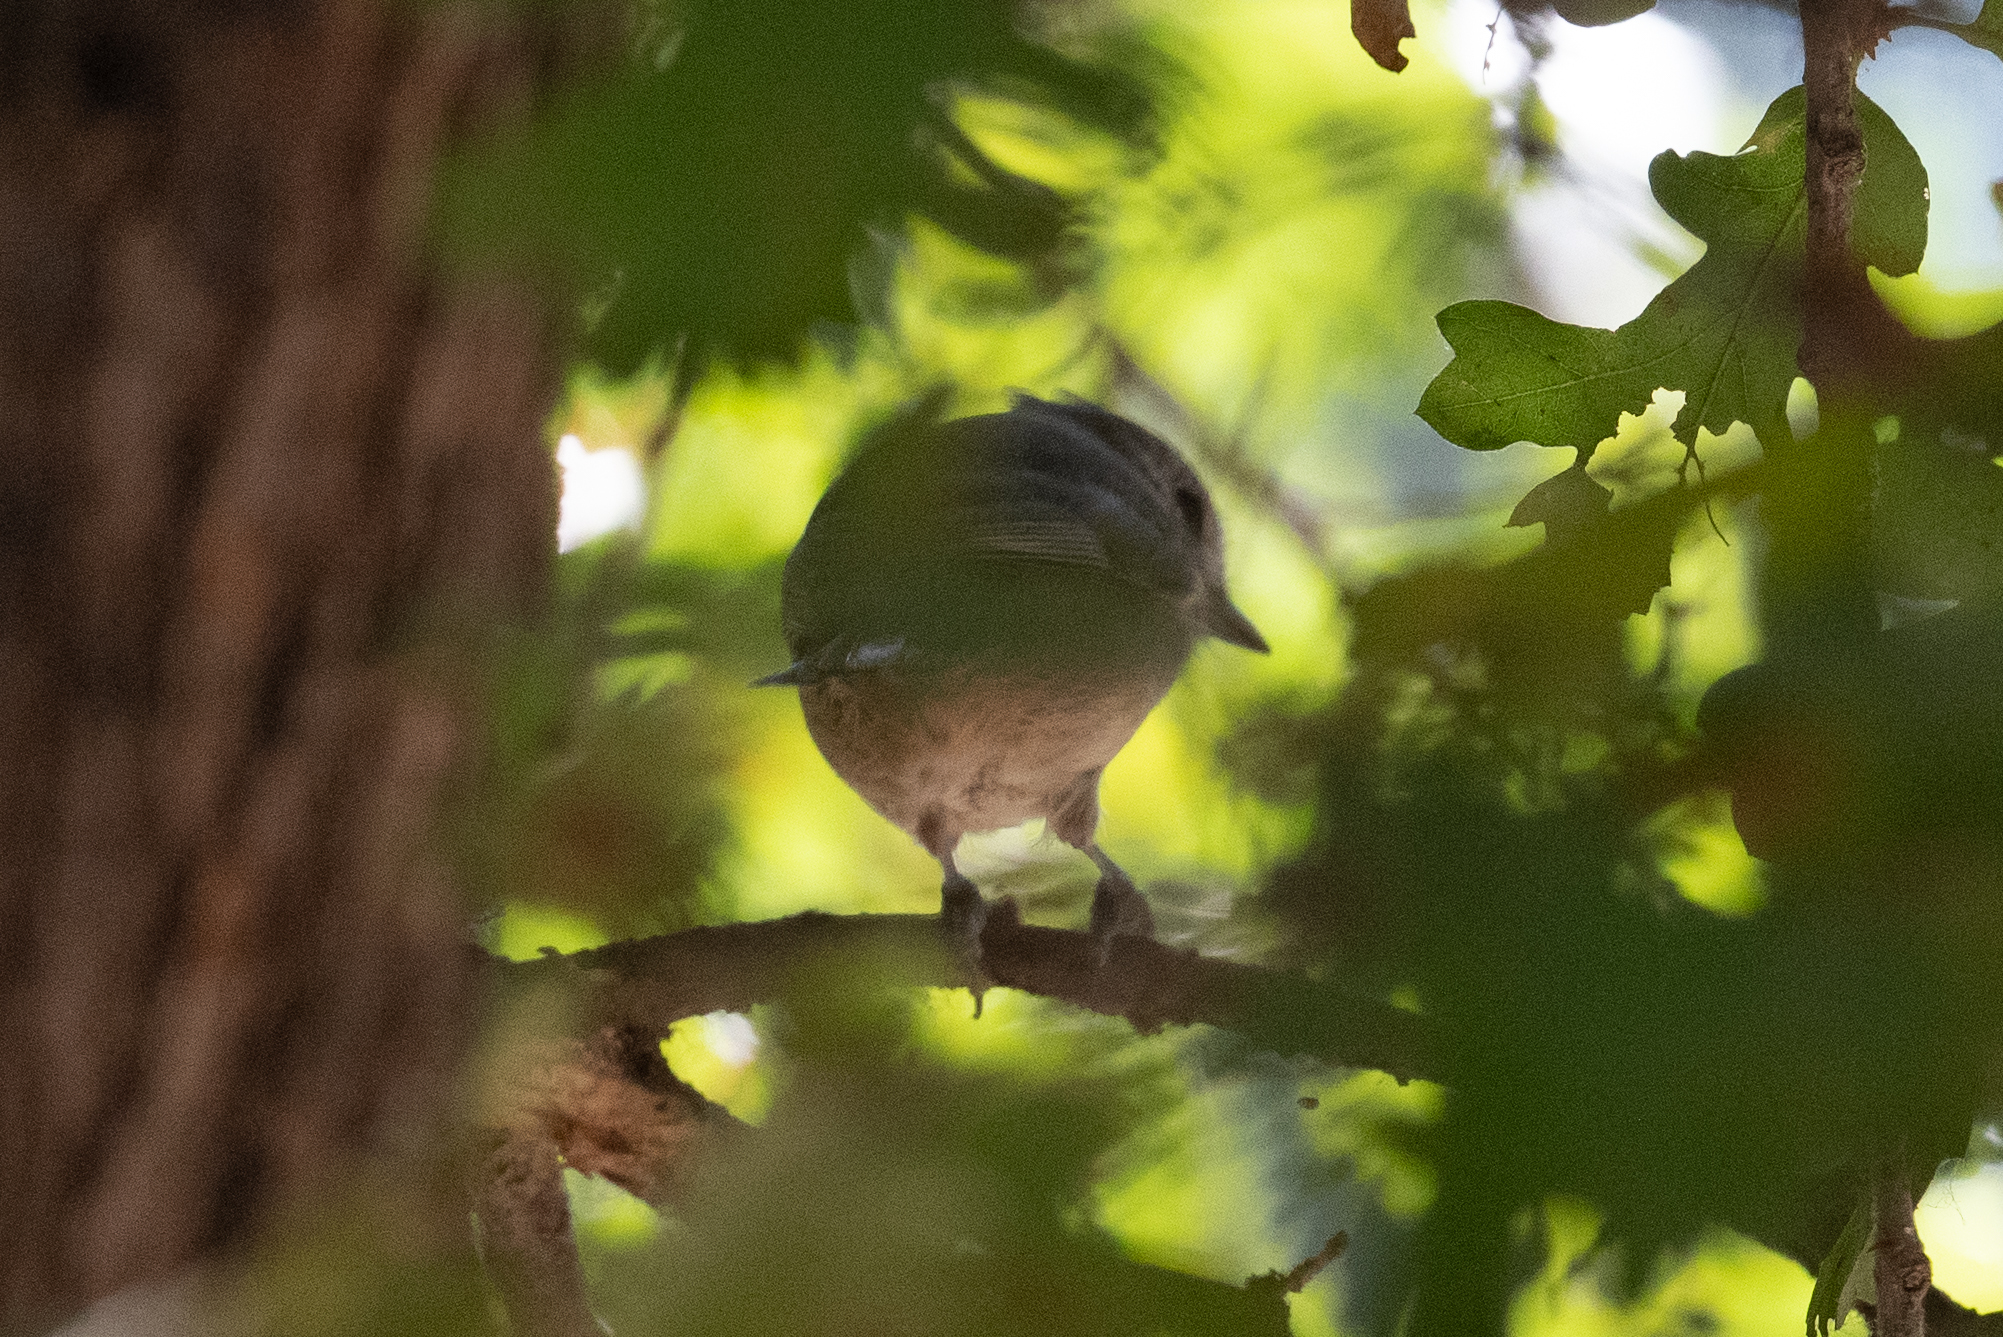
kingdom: Animalia
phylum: Chordata
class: Aves
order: Passeriformes
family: Paridae
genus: Baeolophus
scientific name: Baeolophus inornatus
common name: Oak titmouse
